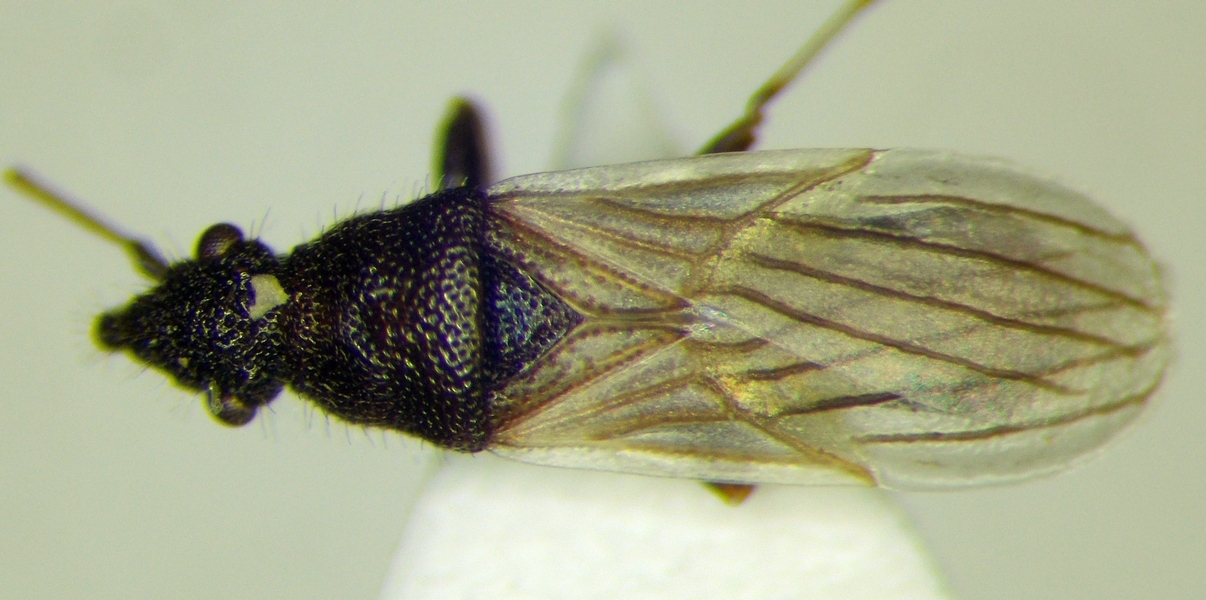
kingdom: Animalia
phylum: Arthropoda
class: Insecta
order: Hemiptera
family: Oxycarenidae
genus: Microplax
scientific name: Microplax interrupta
